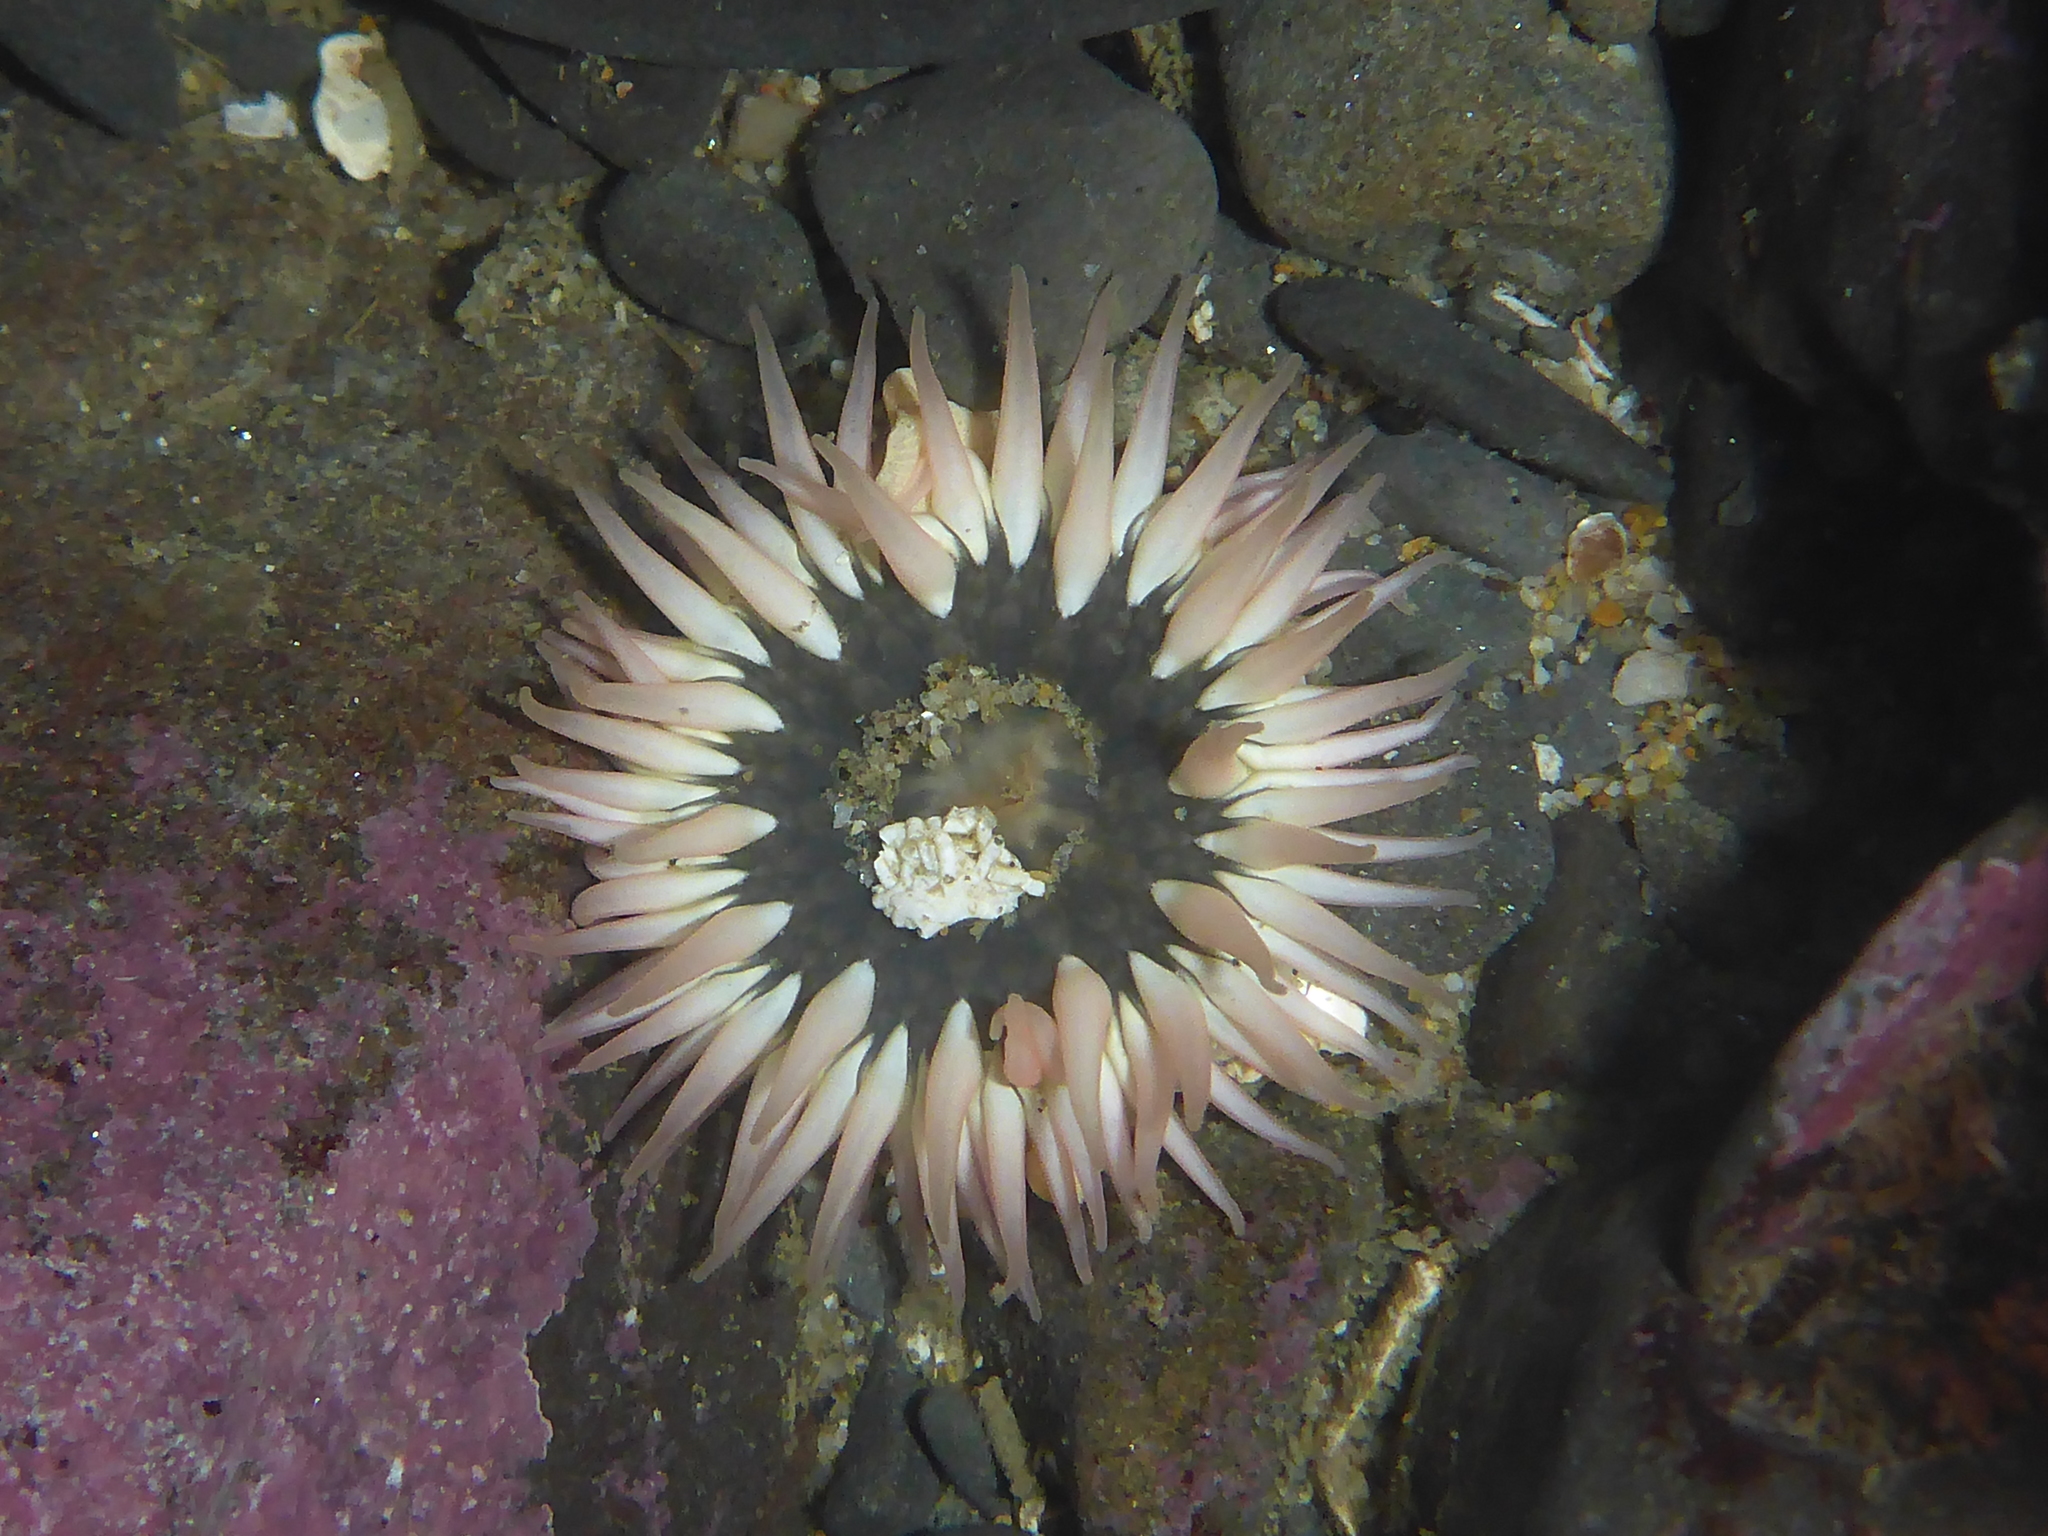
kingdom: Animalia
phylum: Cnidaria
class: Anthozoa
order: Actiniaria
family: Actiniidae
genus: Anthopleura
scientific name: Anthopleura artemisia
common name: Buried sea anemone
